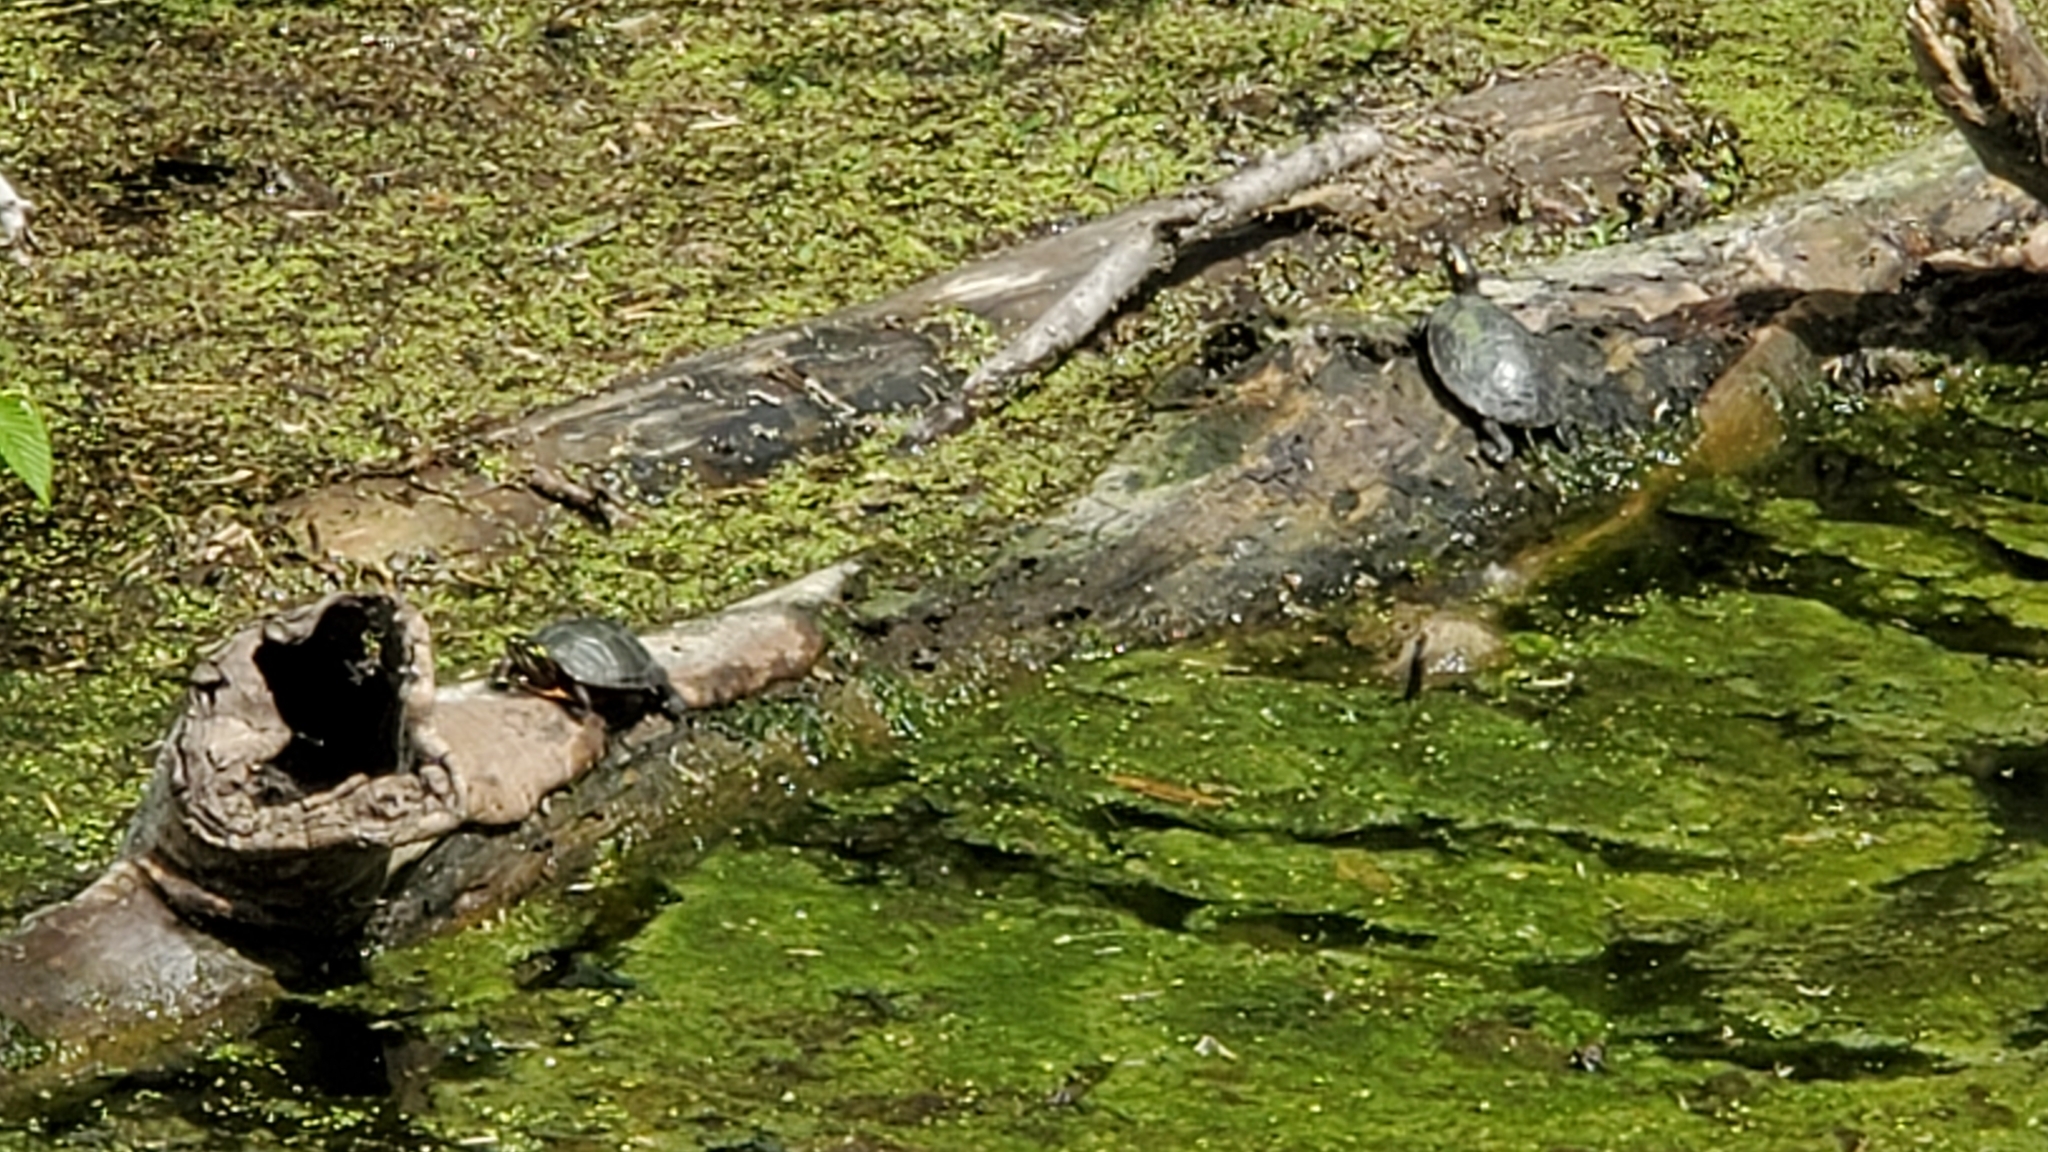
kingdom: Animalia
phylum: Chordata
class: Testudines
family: Emydidae
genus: Chrysemys
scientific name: Chrysemys picta
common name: Painted turtle
